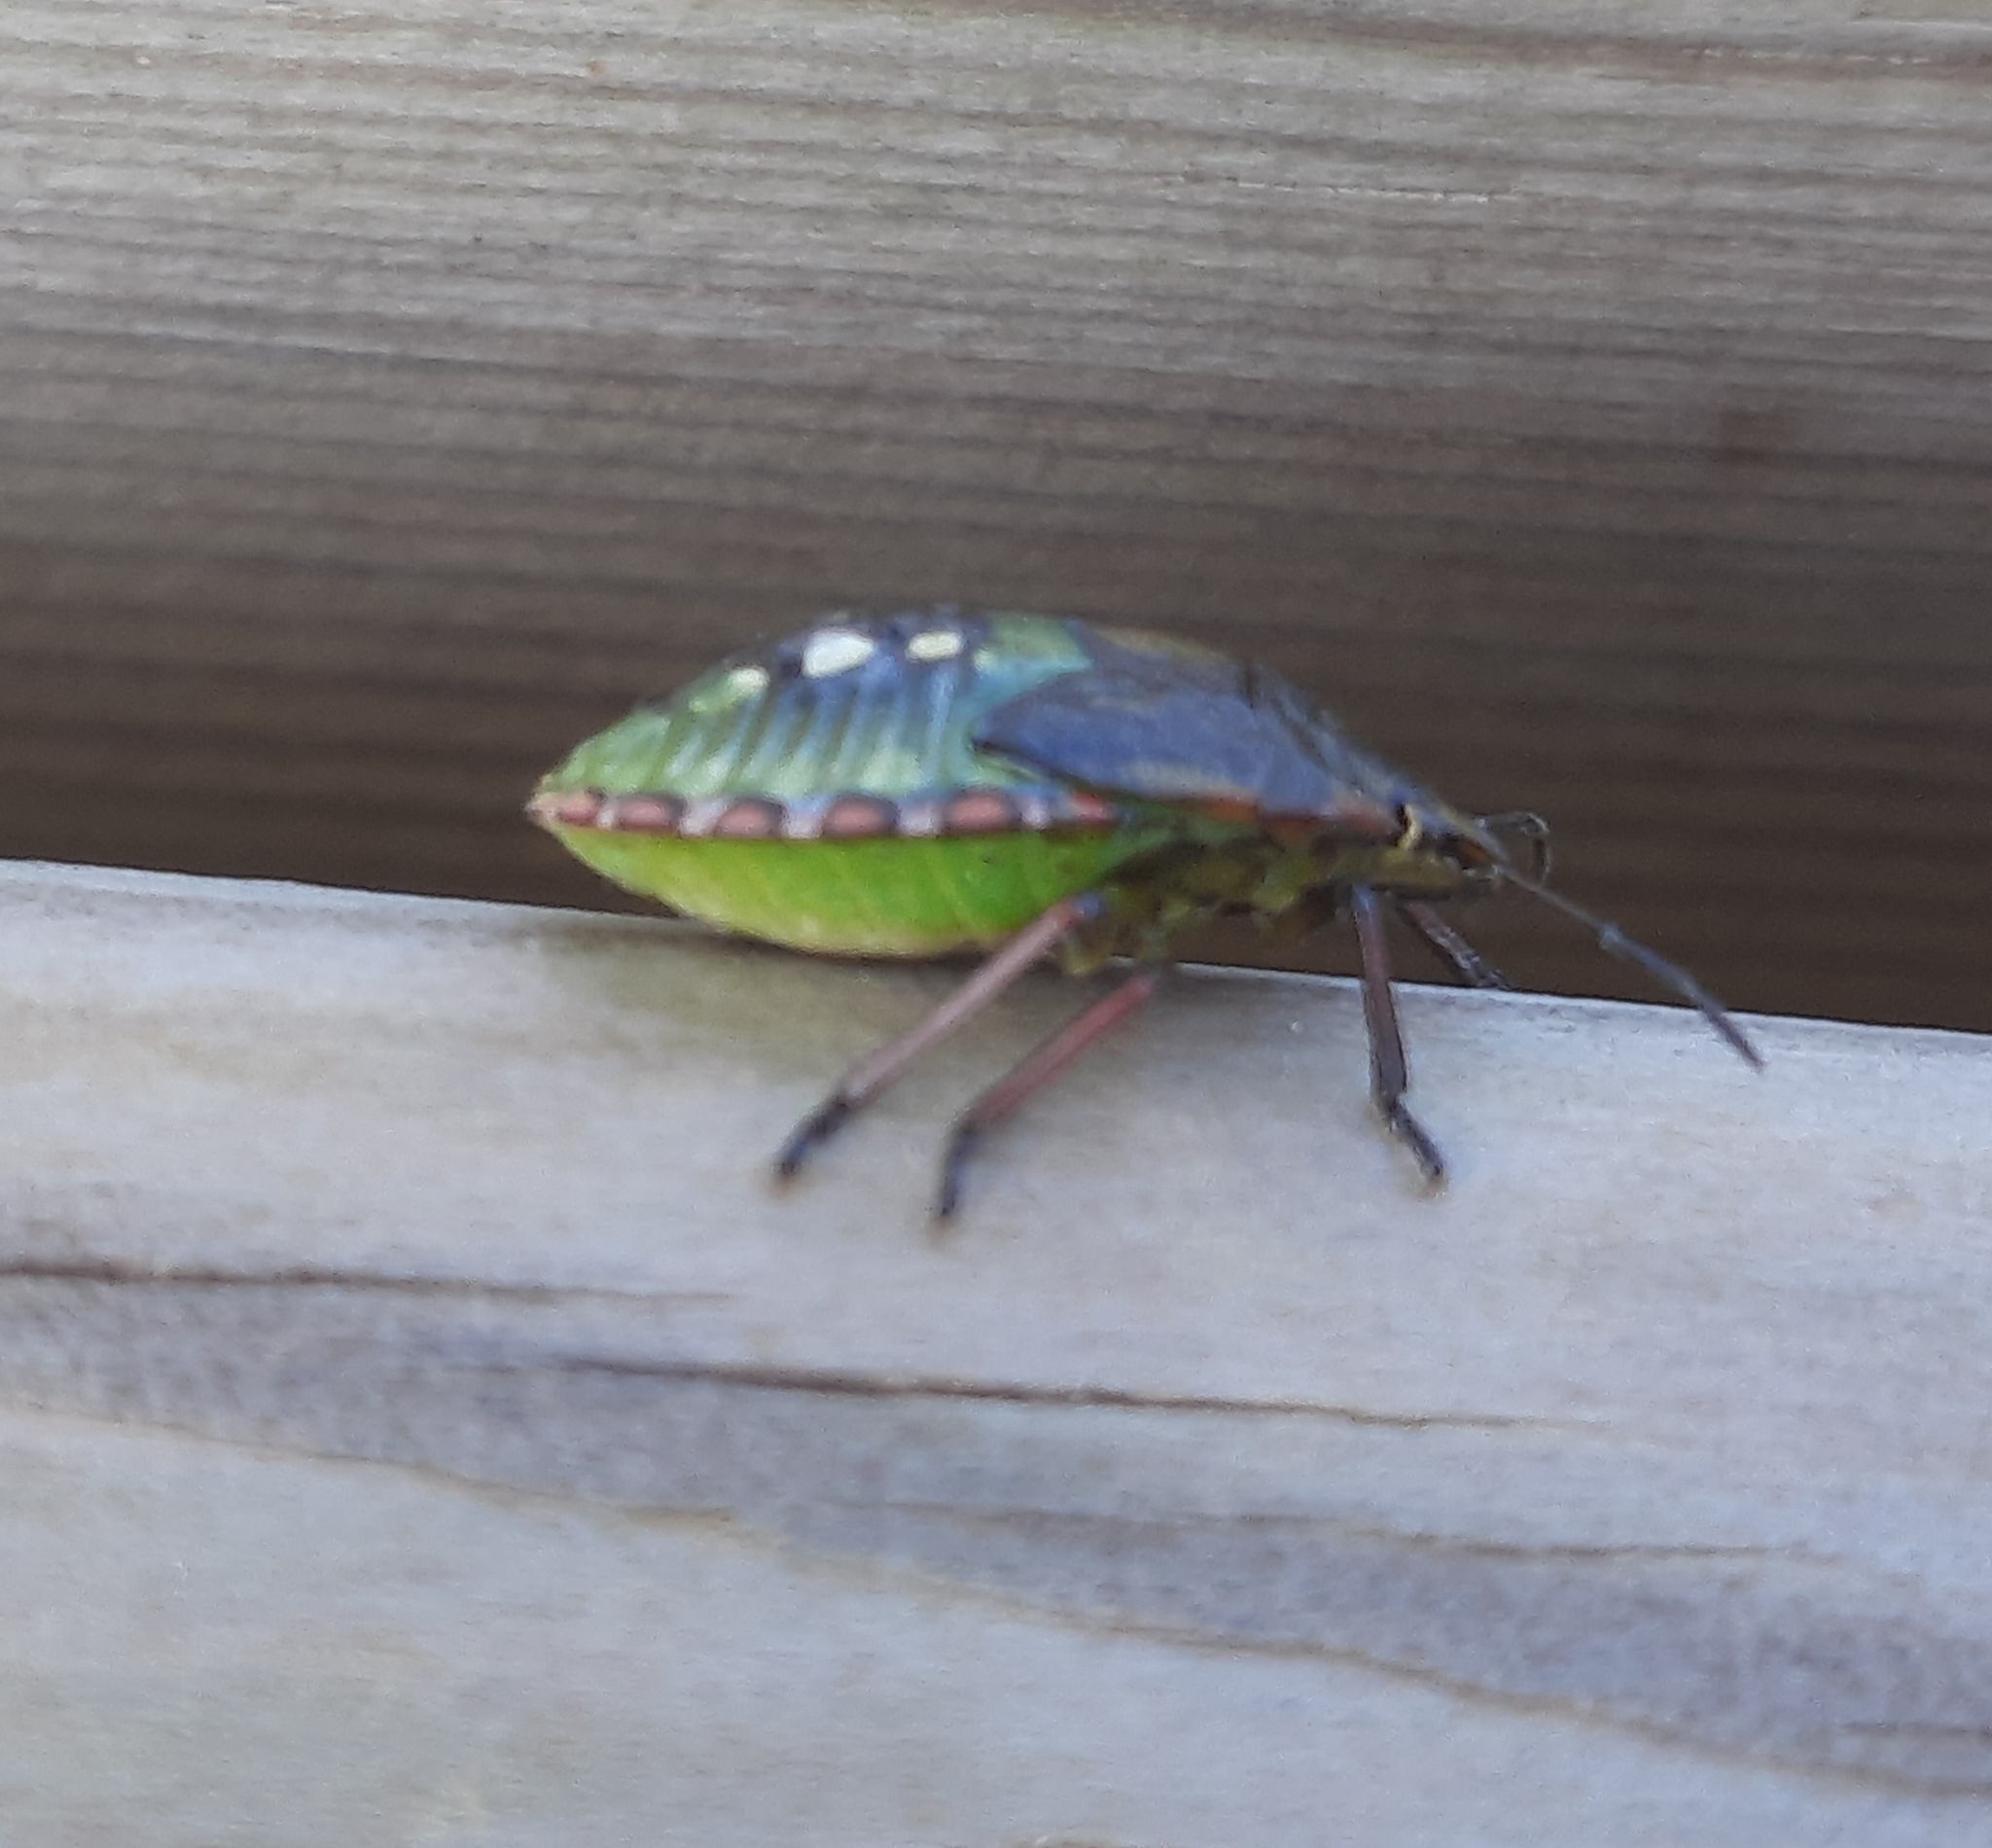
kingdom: Animalia
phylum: Arthropoda
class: Insecta
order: Hemiptera
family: Pentatomidae
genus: Nezara
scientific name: Nezara viridula
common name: Southern green stink bug
